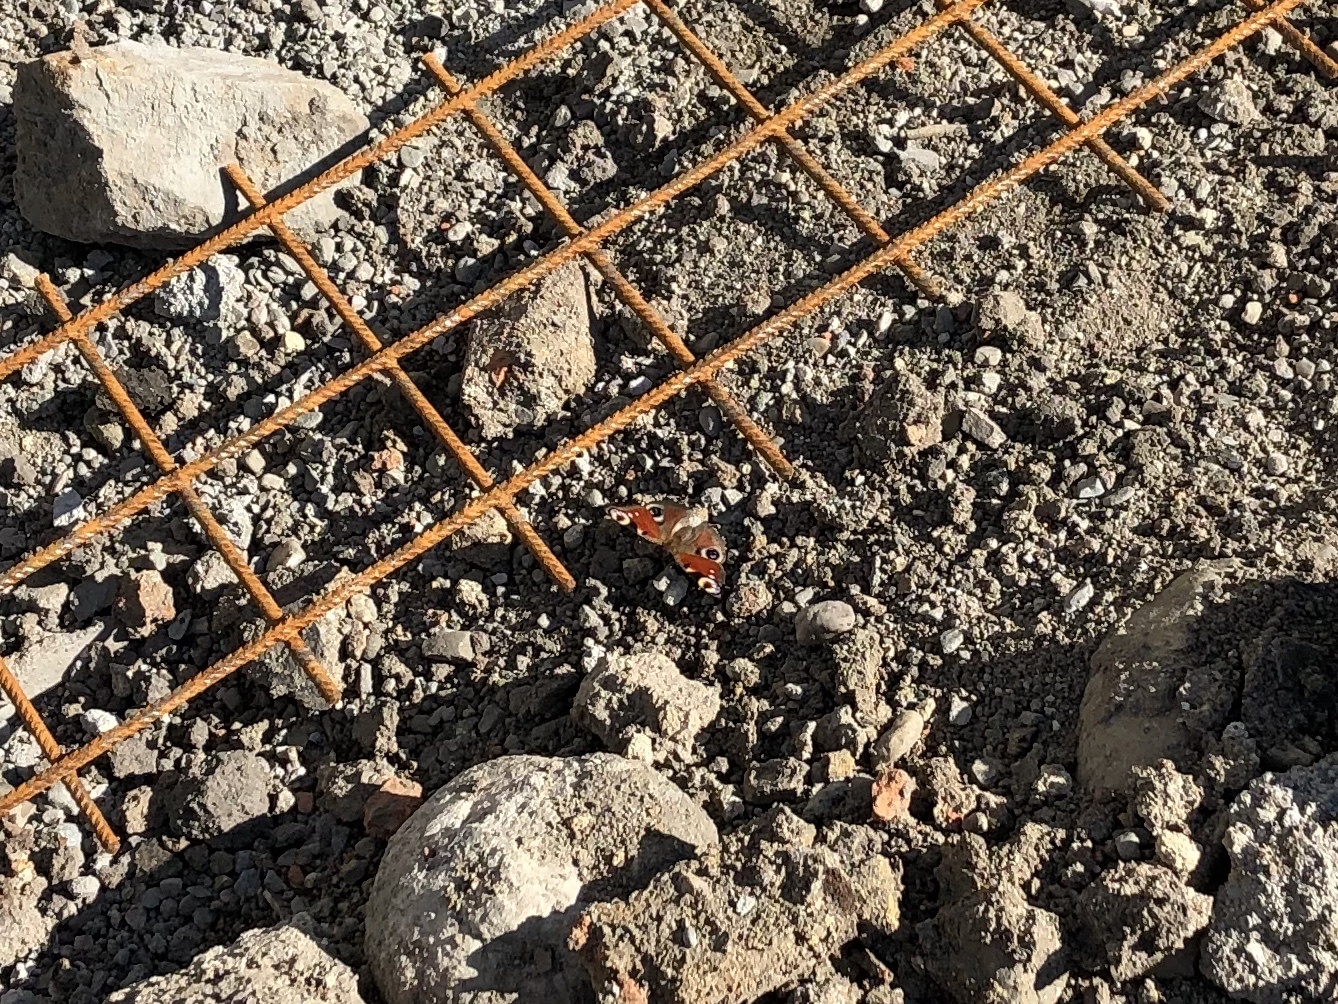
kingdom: Animalia
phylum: Arthropoda
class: Insecta
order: Lepidoptera
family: Nymphalidae
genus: Aglais
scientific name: Aglais io
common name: Peacock
